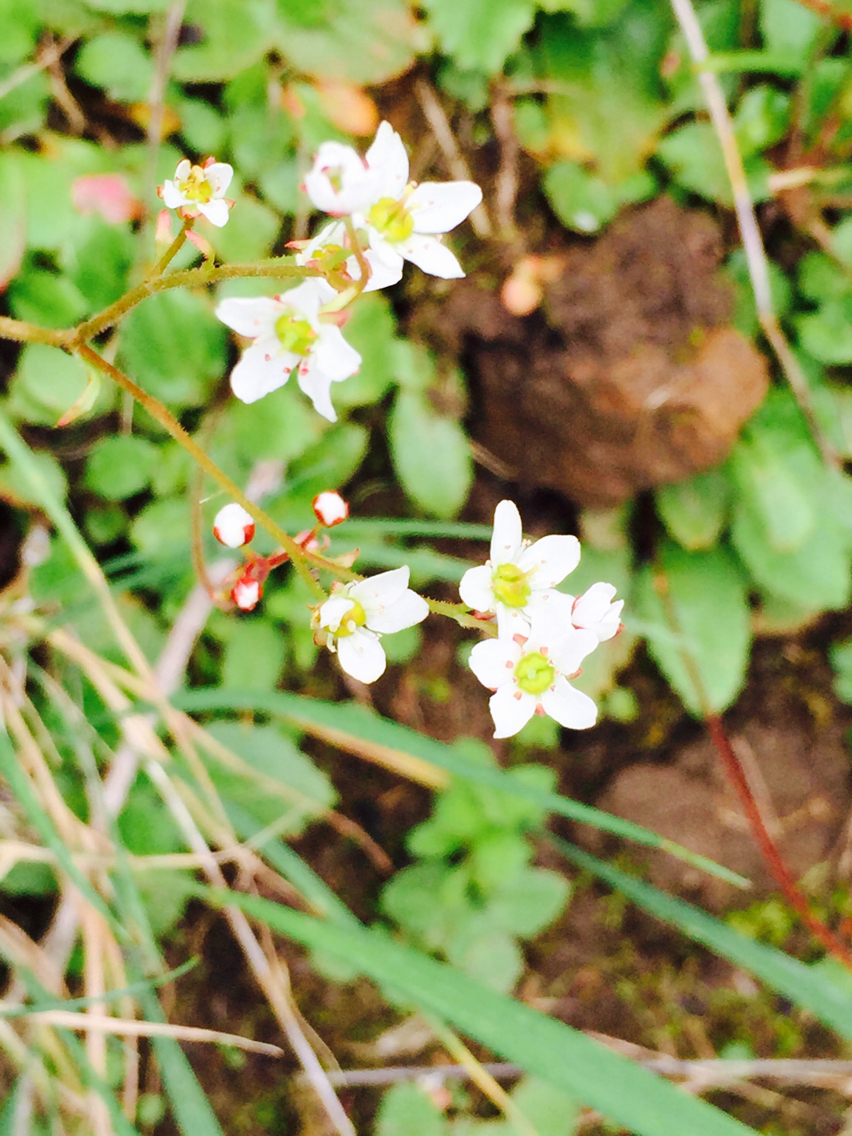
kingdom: Plantae
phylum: Tracheophyta
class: Magnoliopsida
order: Saxifragales
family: Saxifragaceae
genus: Micranthes
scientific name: Micranthes californica
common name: California saxifrage
